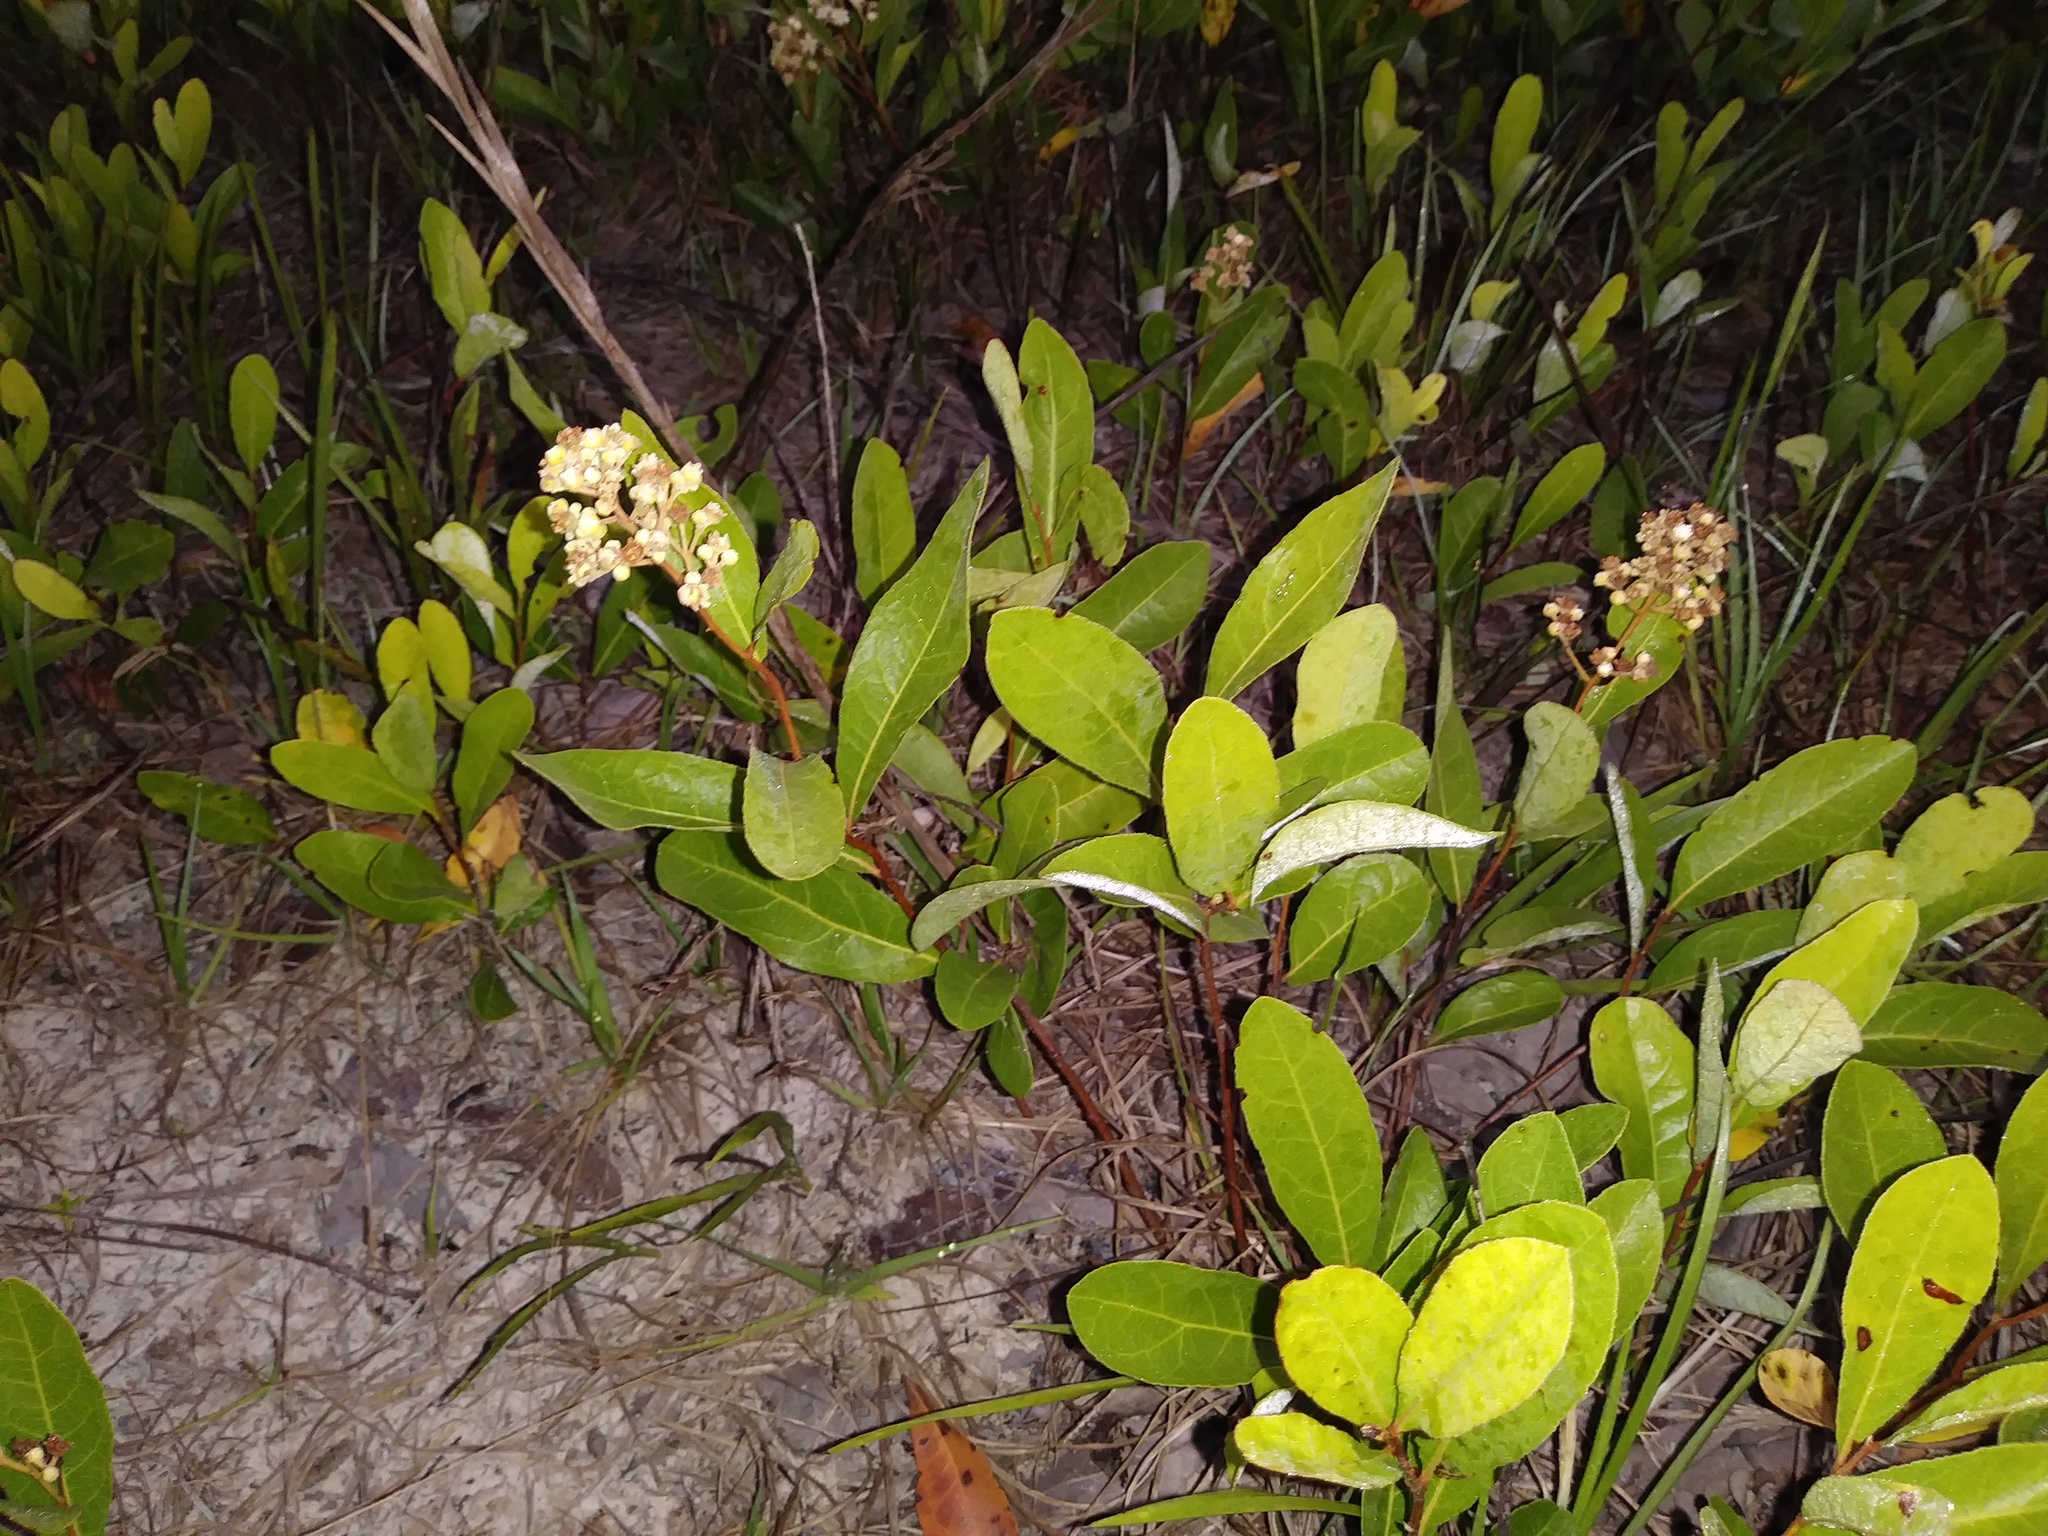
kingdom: Plantae
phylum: Tracheophyta
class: Magnoliopsida
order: Malpighiales
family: Chrysobalanaceae
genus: Geobalanus
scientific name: Geobalanus oblongifolius
